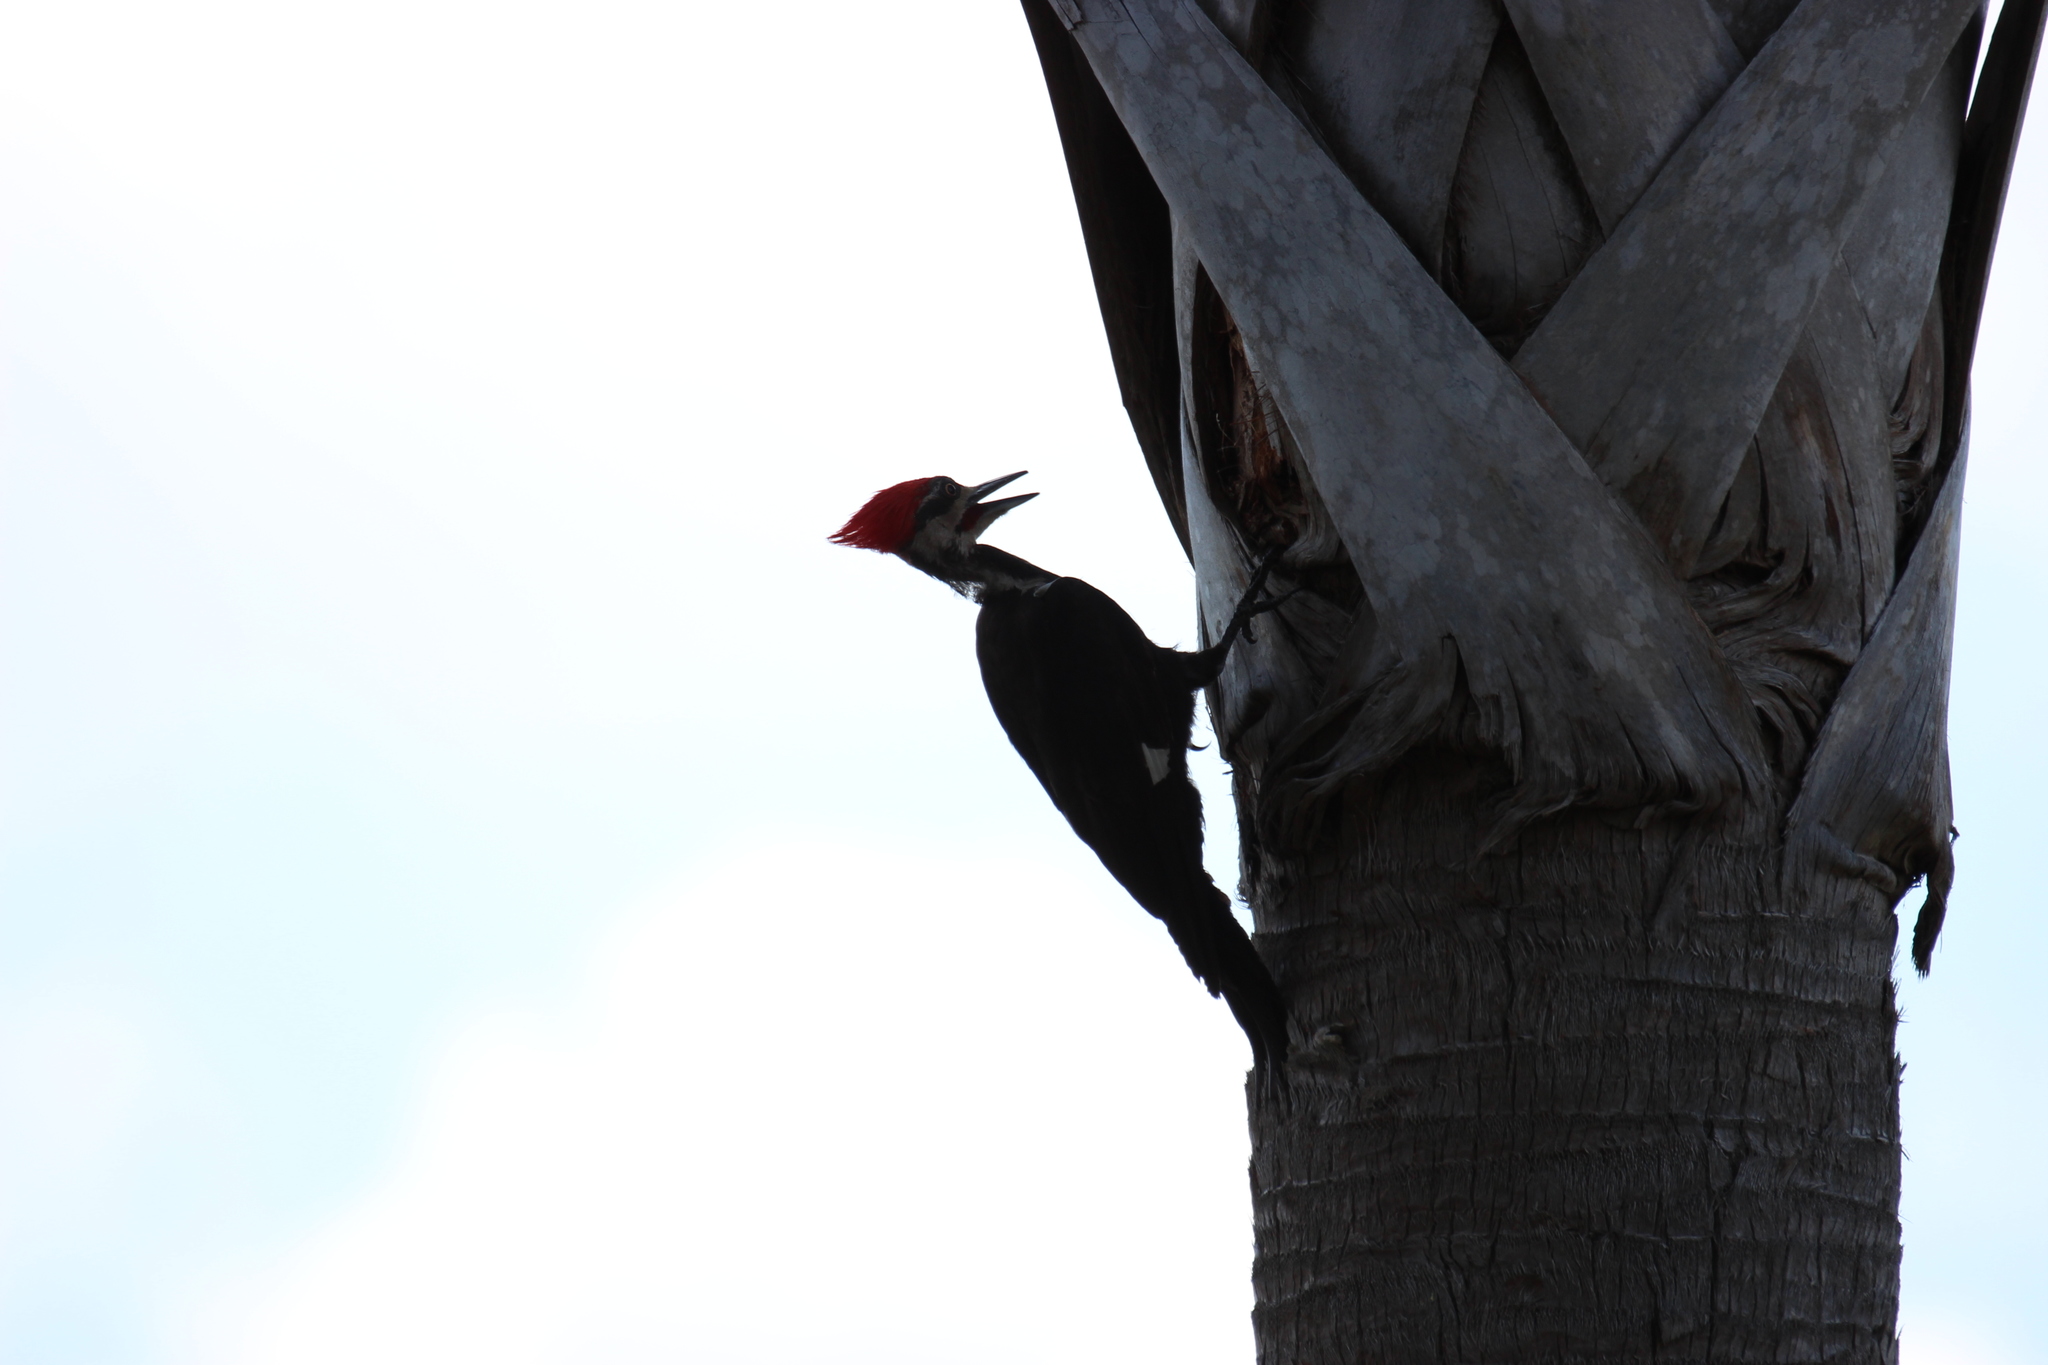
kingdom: Animalia
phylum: Chordata
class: Aves
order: Piciformes
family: Picidae
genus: Dryocopus
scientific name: Dryocopus pileatus
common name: Pileated woodpecker
